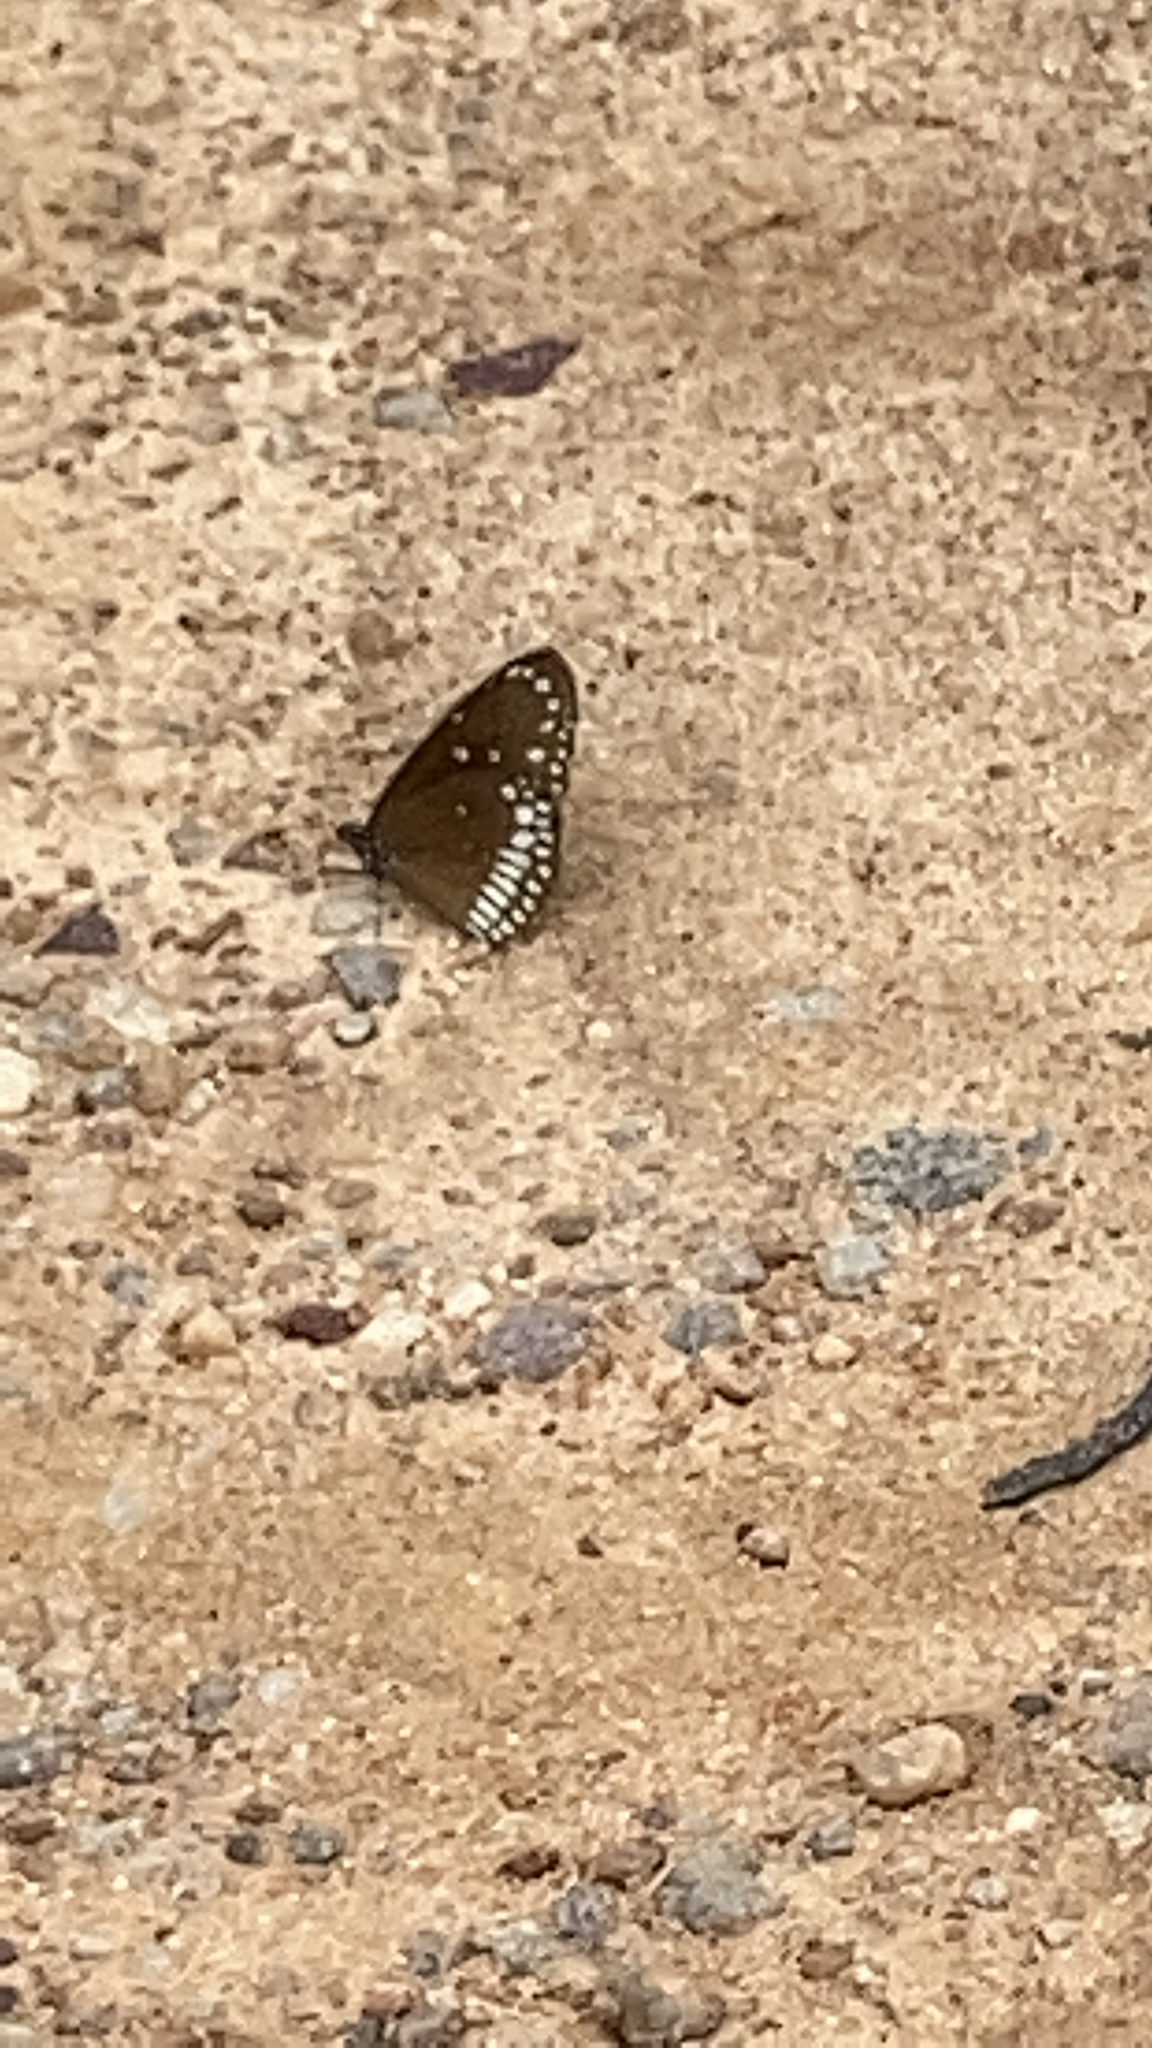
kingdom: Animalia
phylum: Arthropoda
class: Insecta
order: Lepidoptera
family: Nymphalidae
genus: Euploea
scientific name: Euploea core
